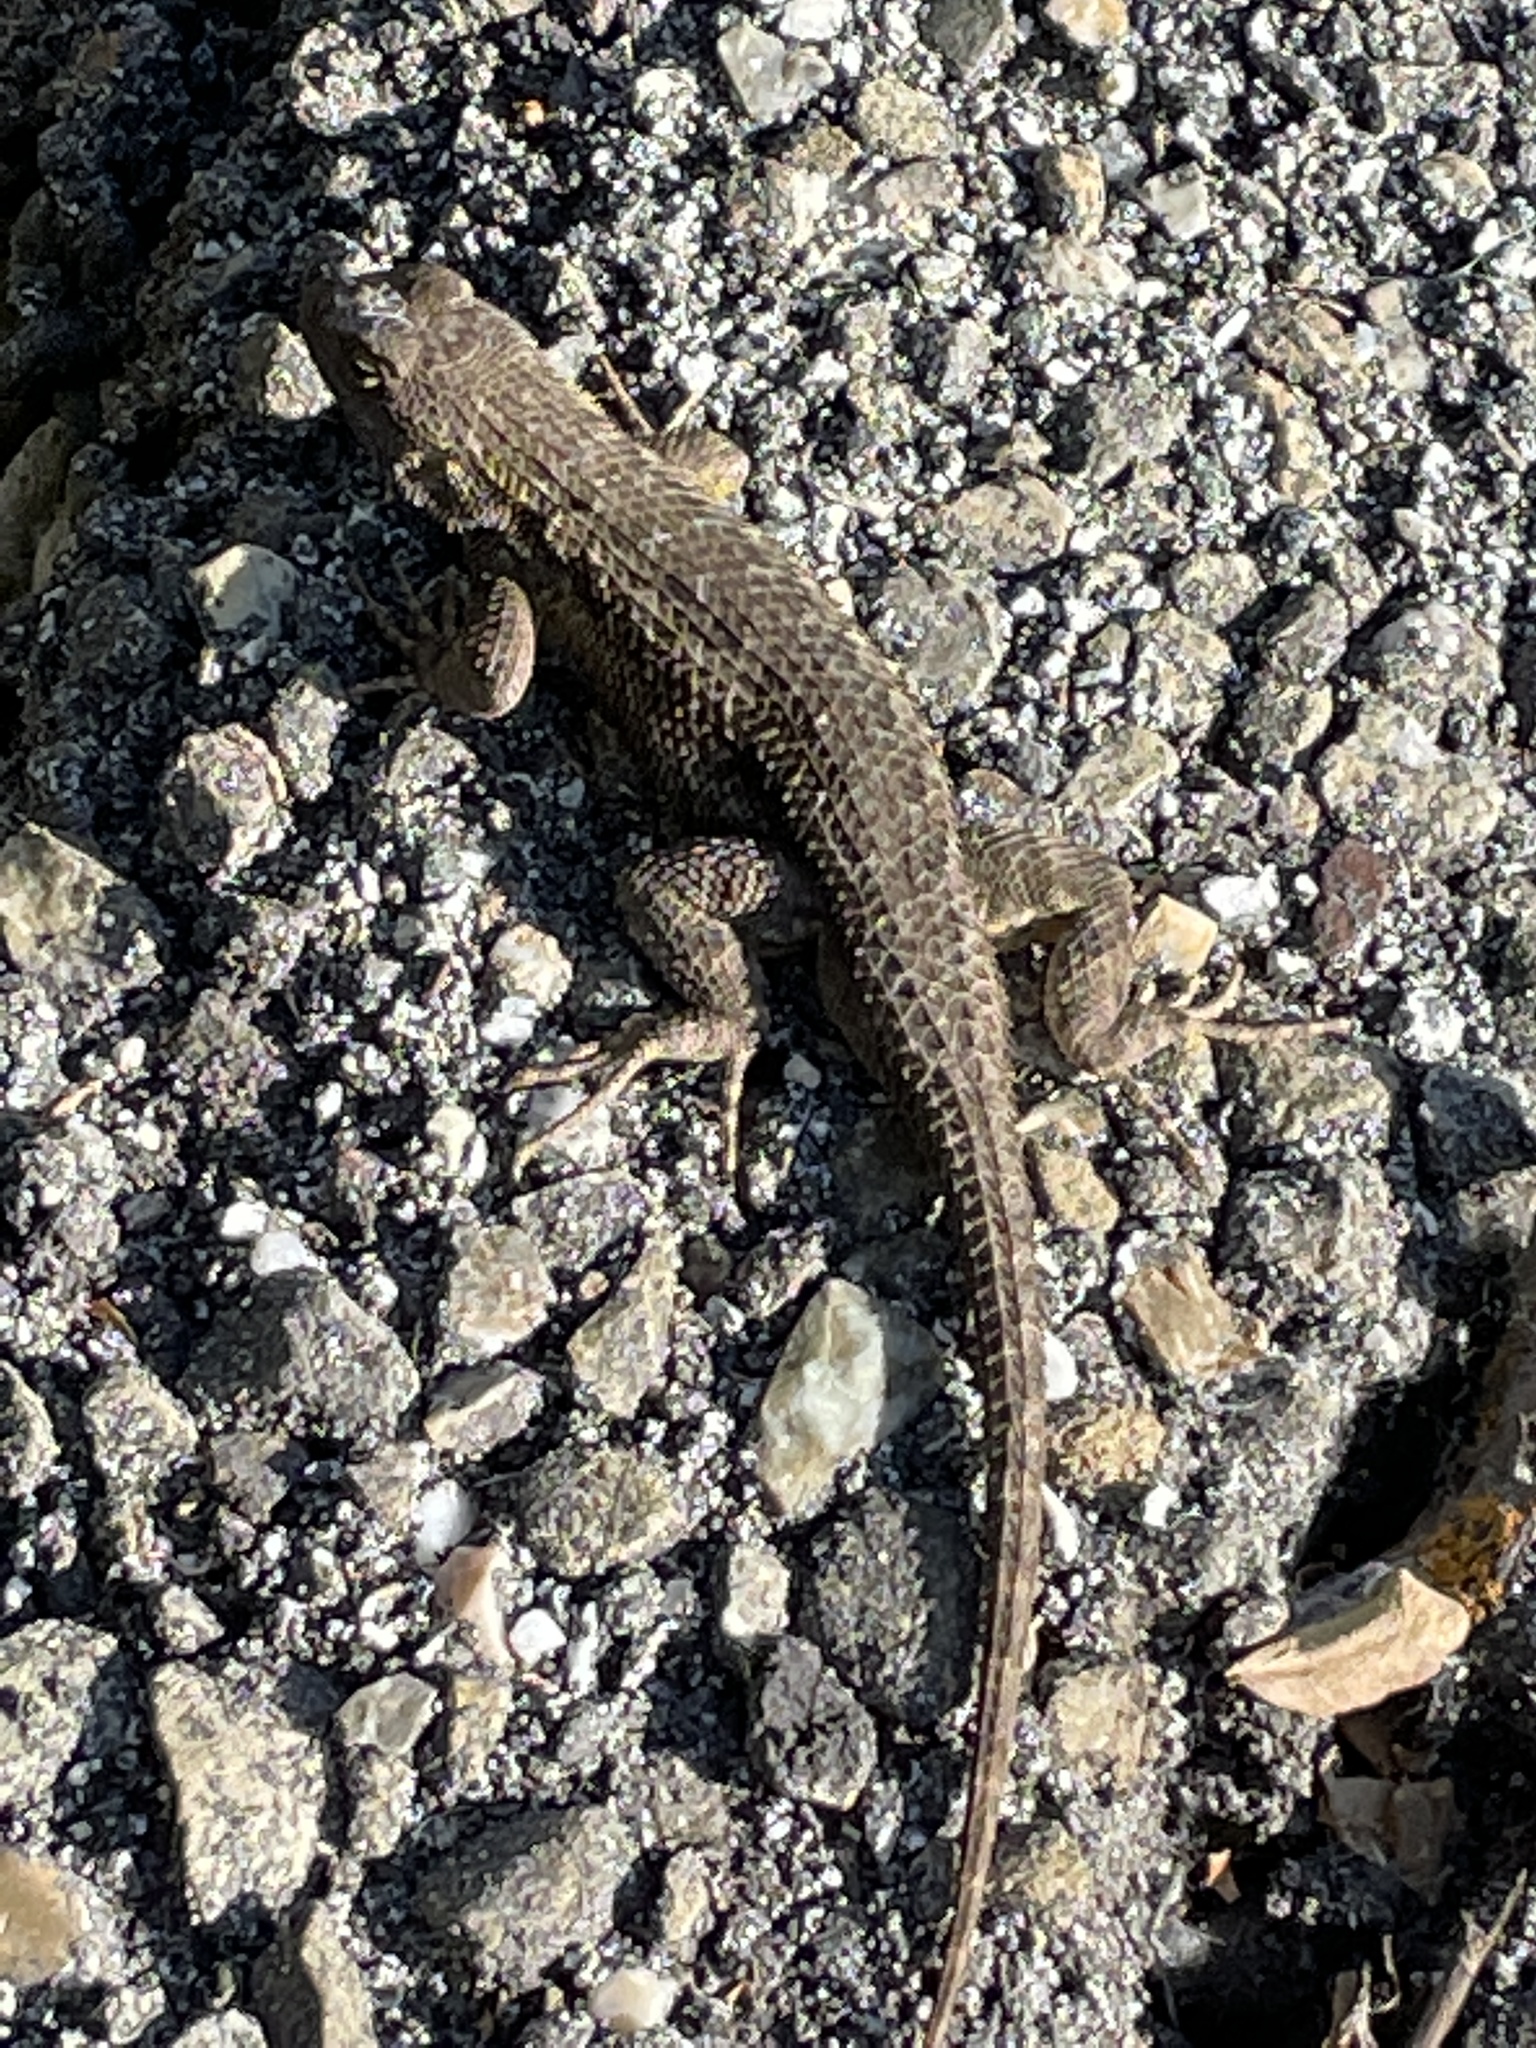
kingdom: Animalia
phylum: Chordata
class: Squamata
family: Phrynosomatidae
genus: Sceloporus
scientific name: Sceloporus occidentalis
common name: Western fence lizard
